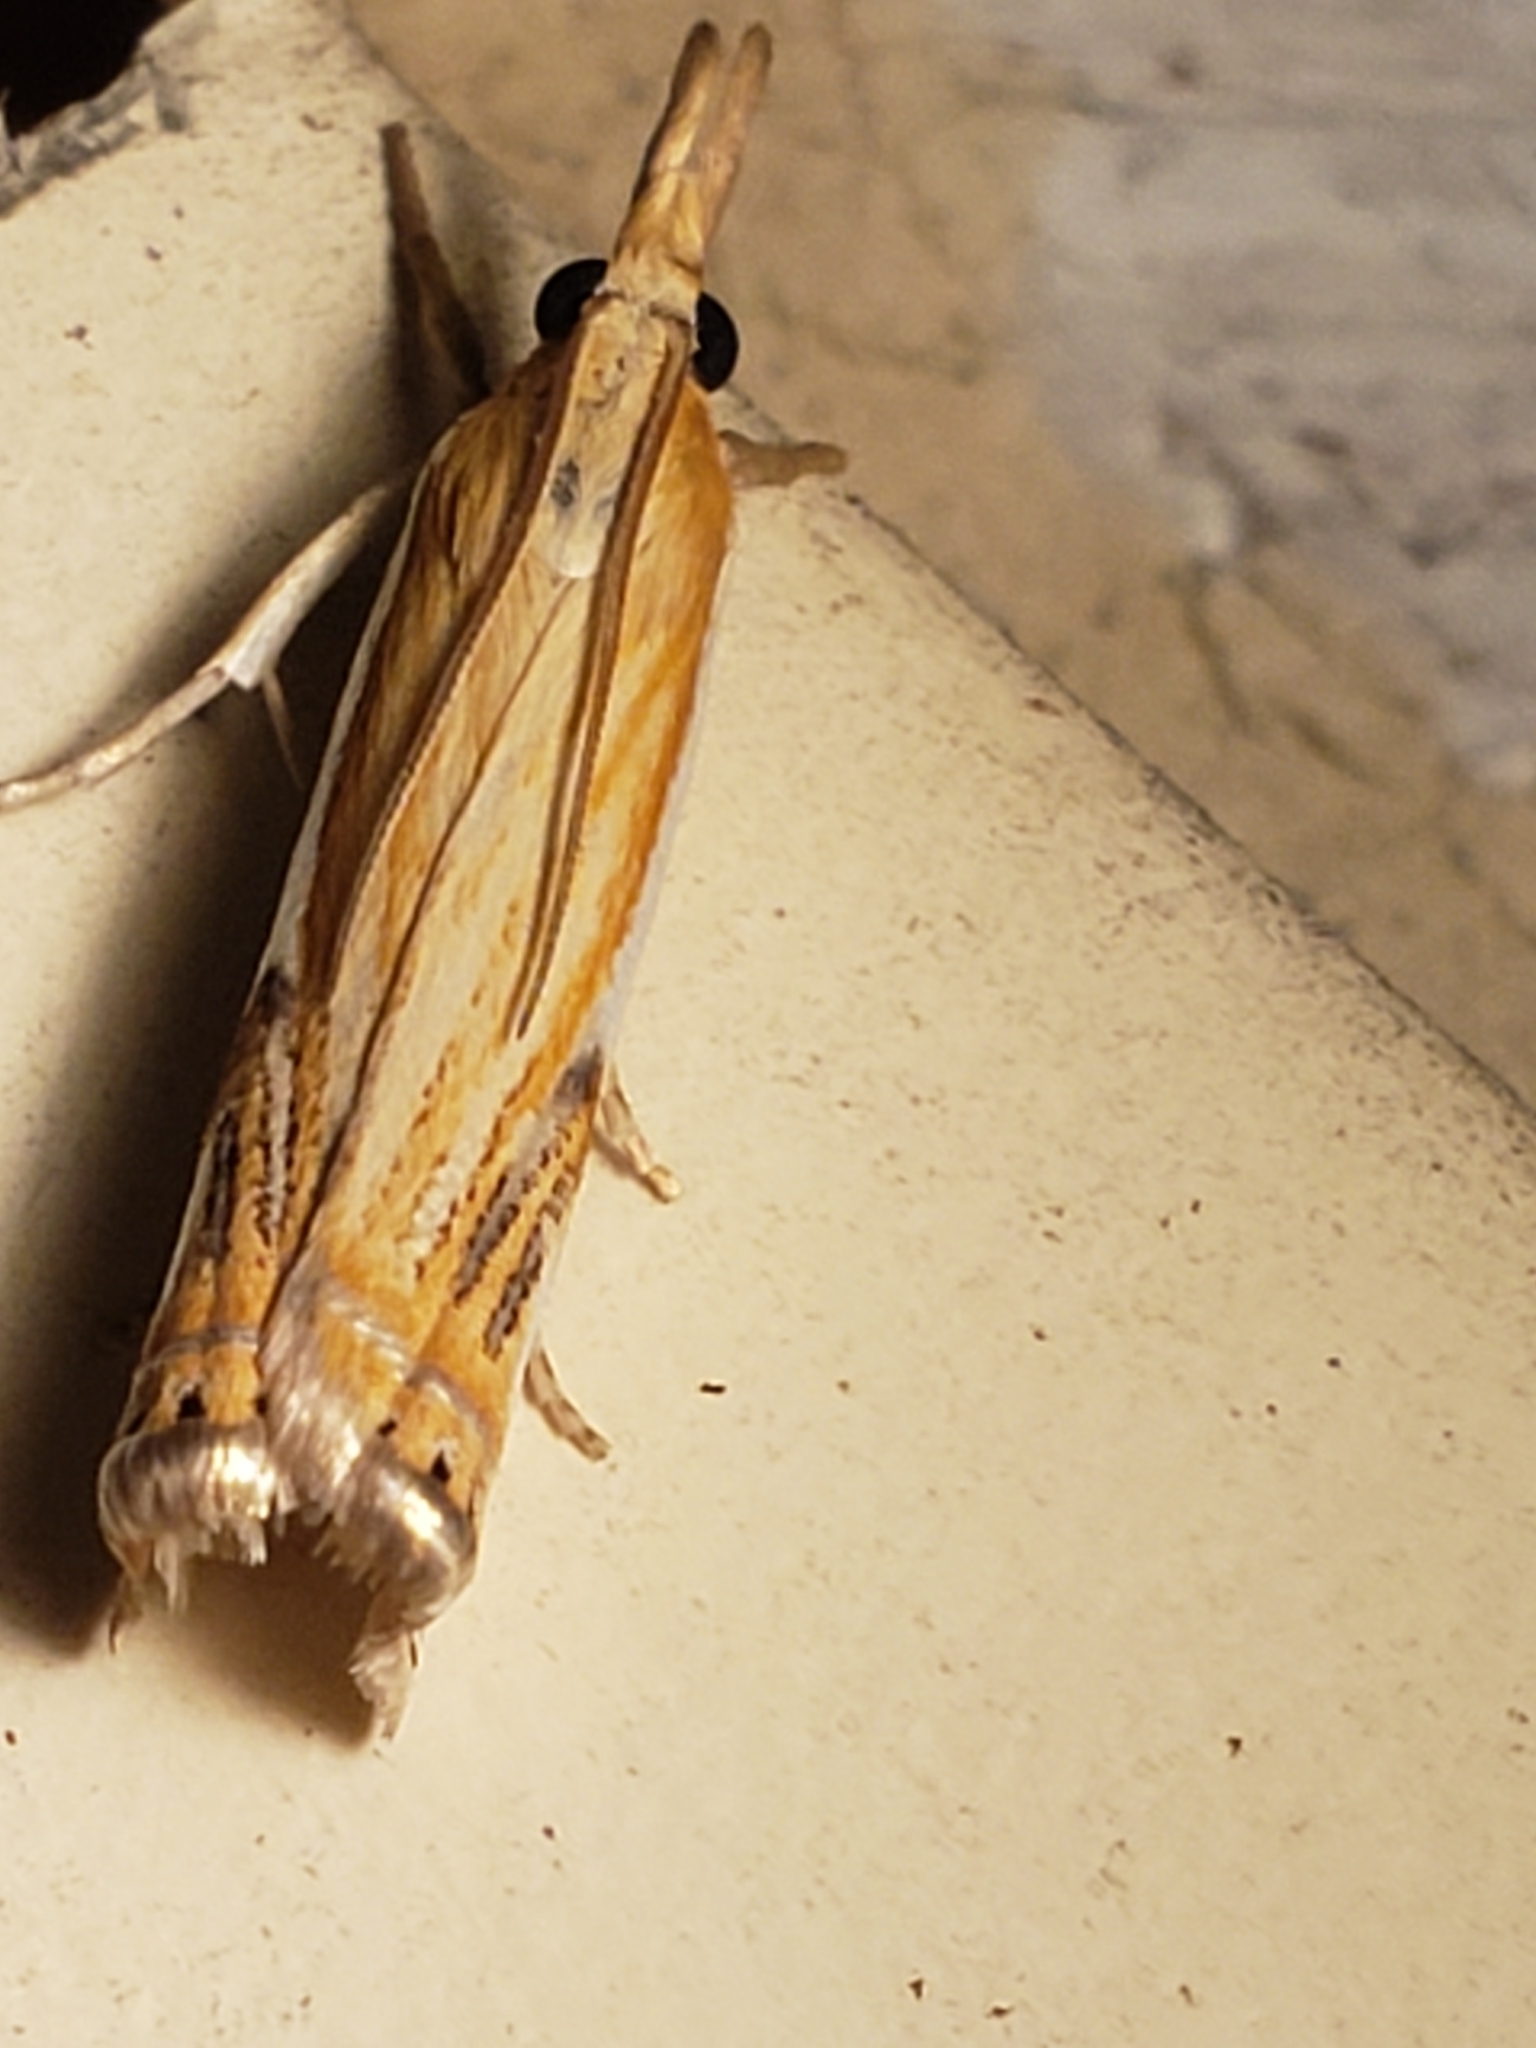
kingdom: Animalia
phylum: Arthropoda
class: Insecta
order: Lepidoptera
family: Crambidae
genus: Crambus
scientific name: Crambus agitatellus
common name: Double-banded grass-veneer
